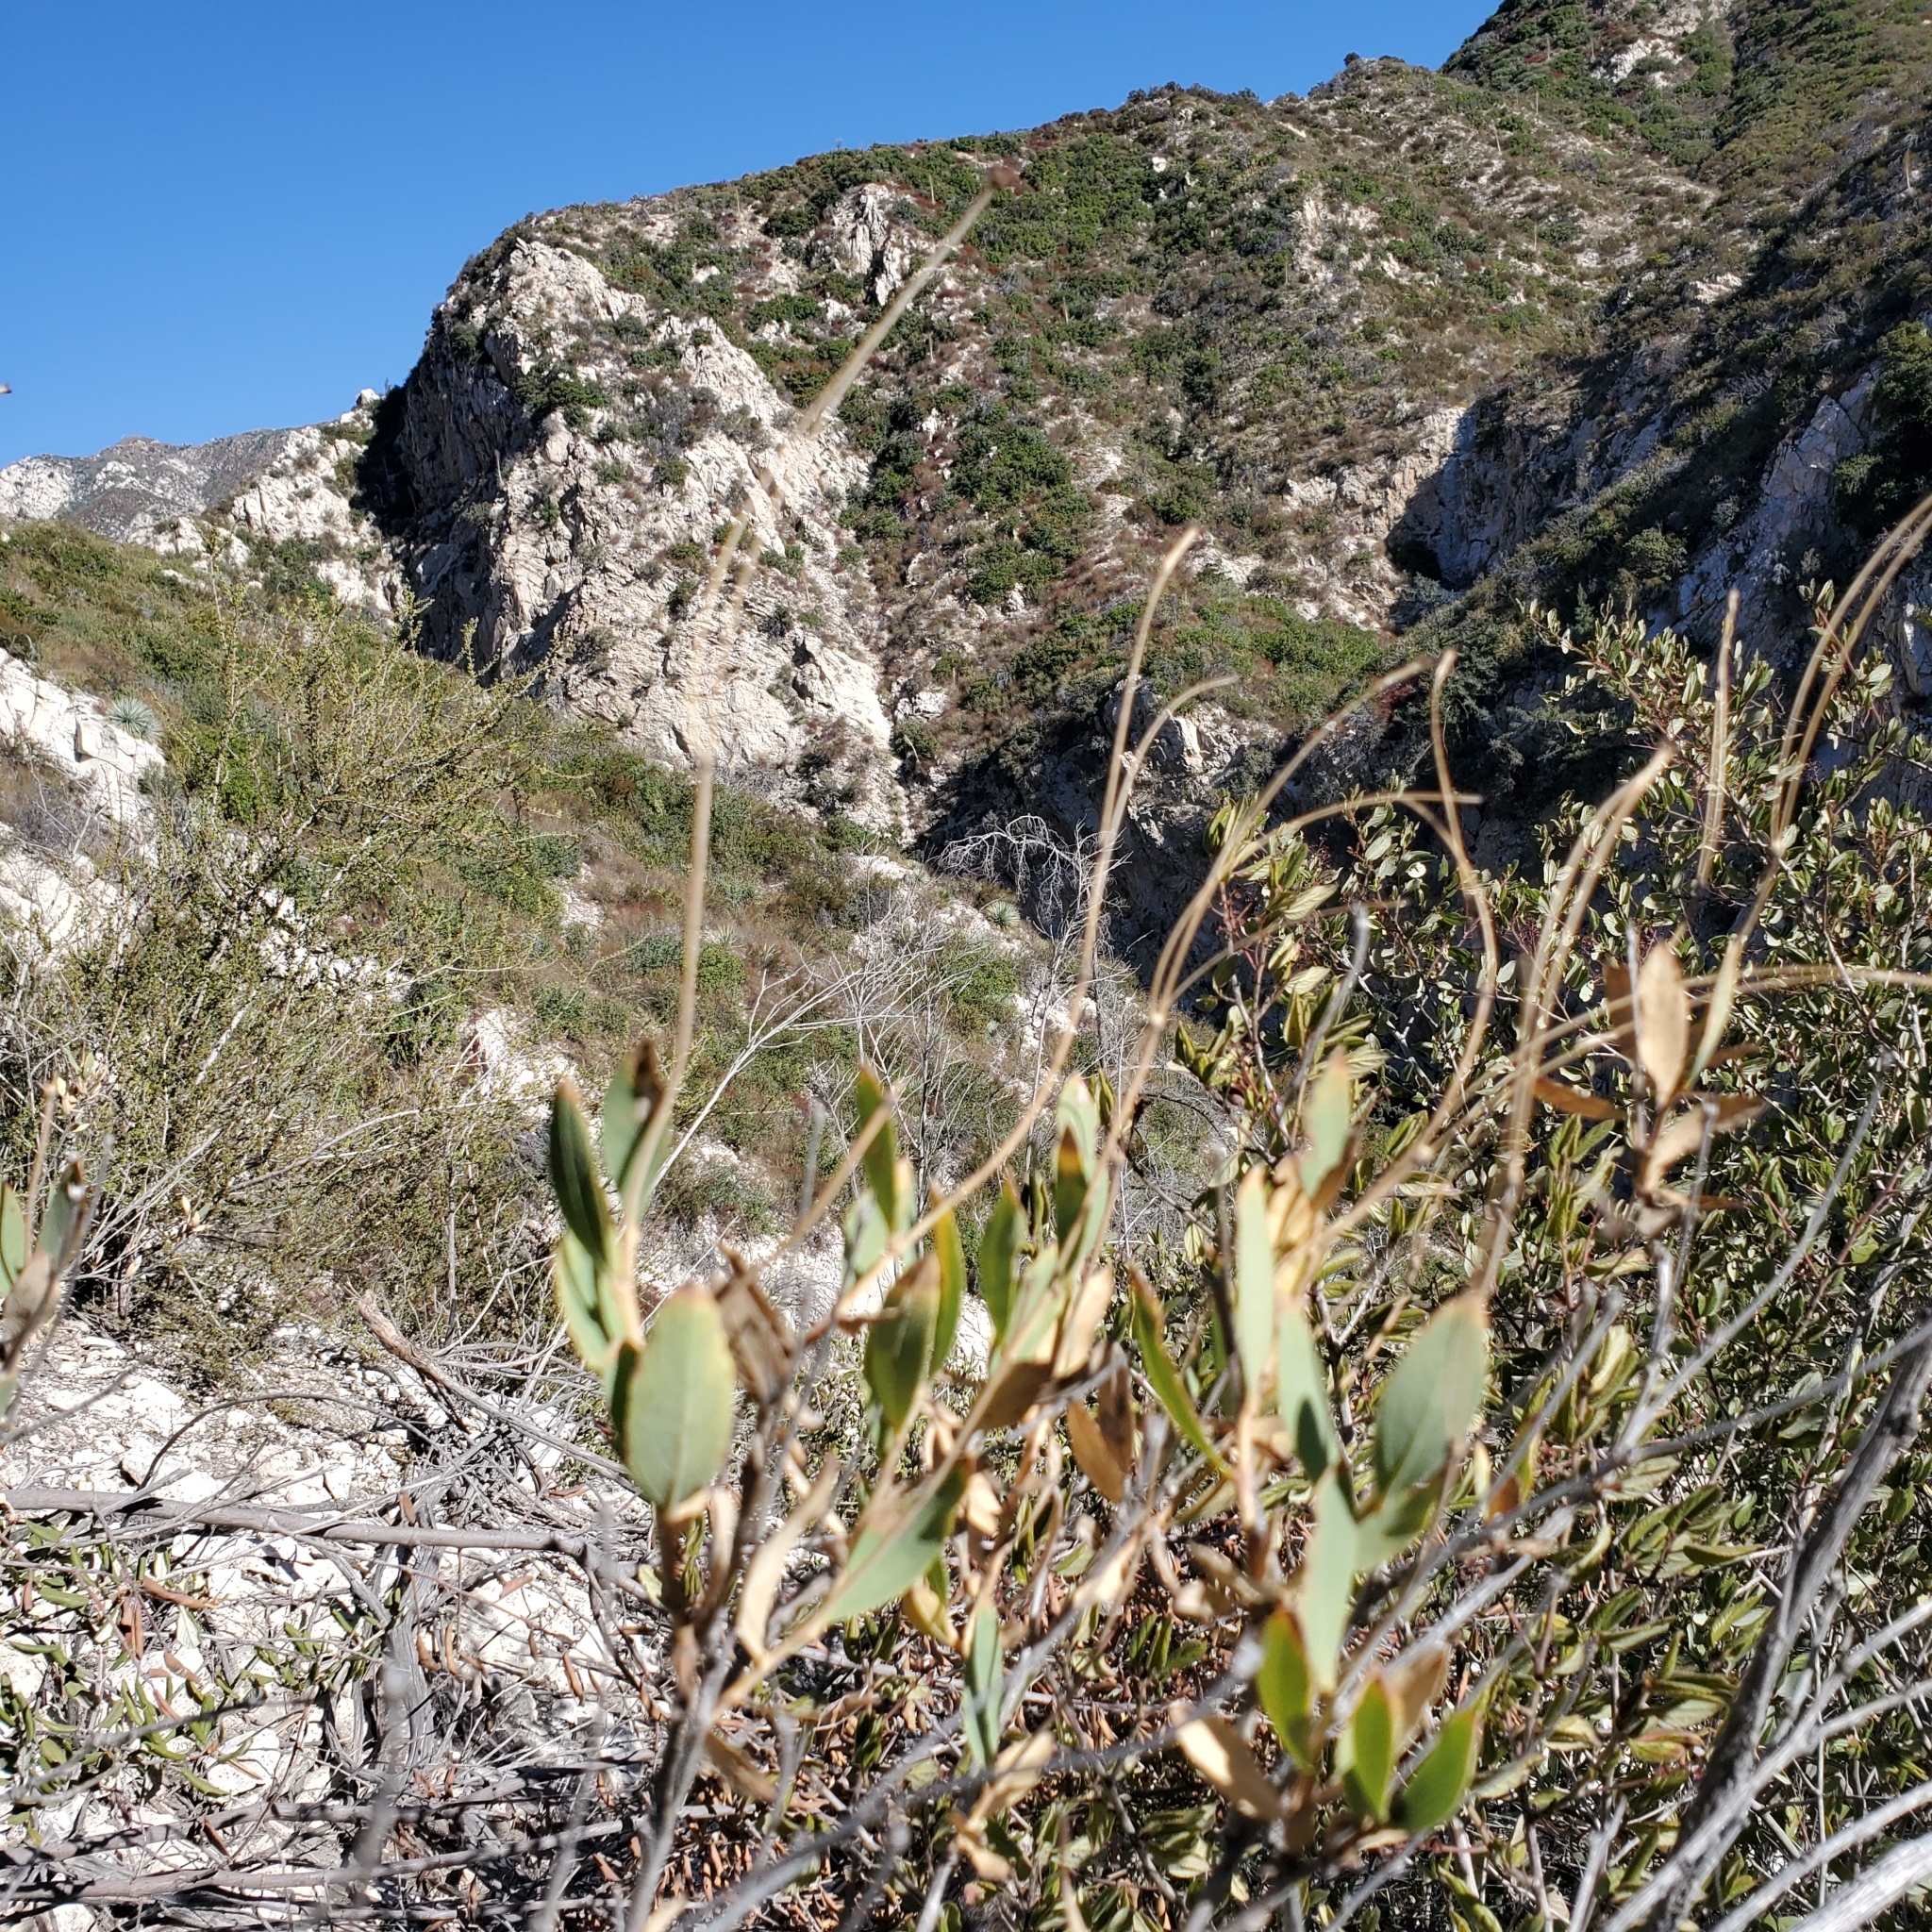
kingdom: Plantae
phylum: Tracheophyta
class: Magnoliopsida
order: Ranunculales
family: Papaveraceae
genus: Dendromecon
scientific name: Dendromecon rigida
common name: Tree poppy
